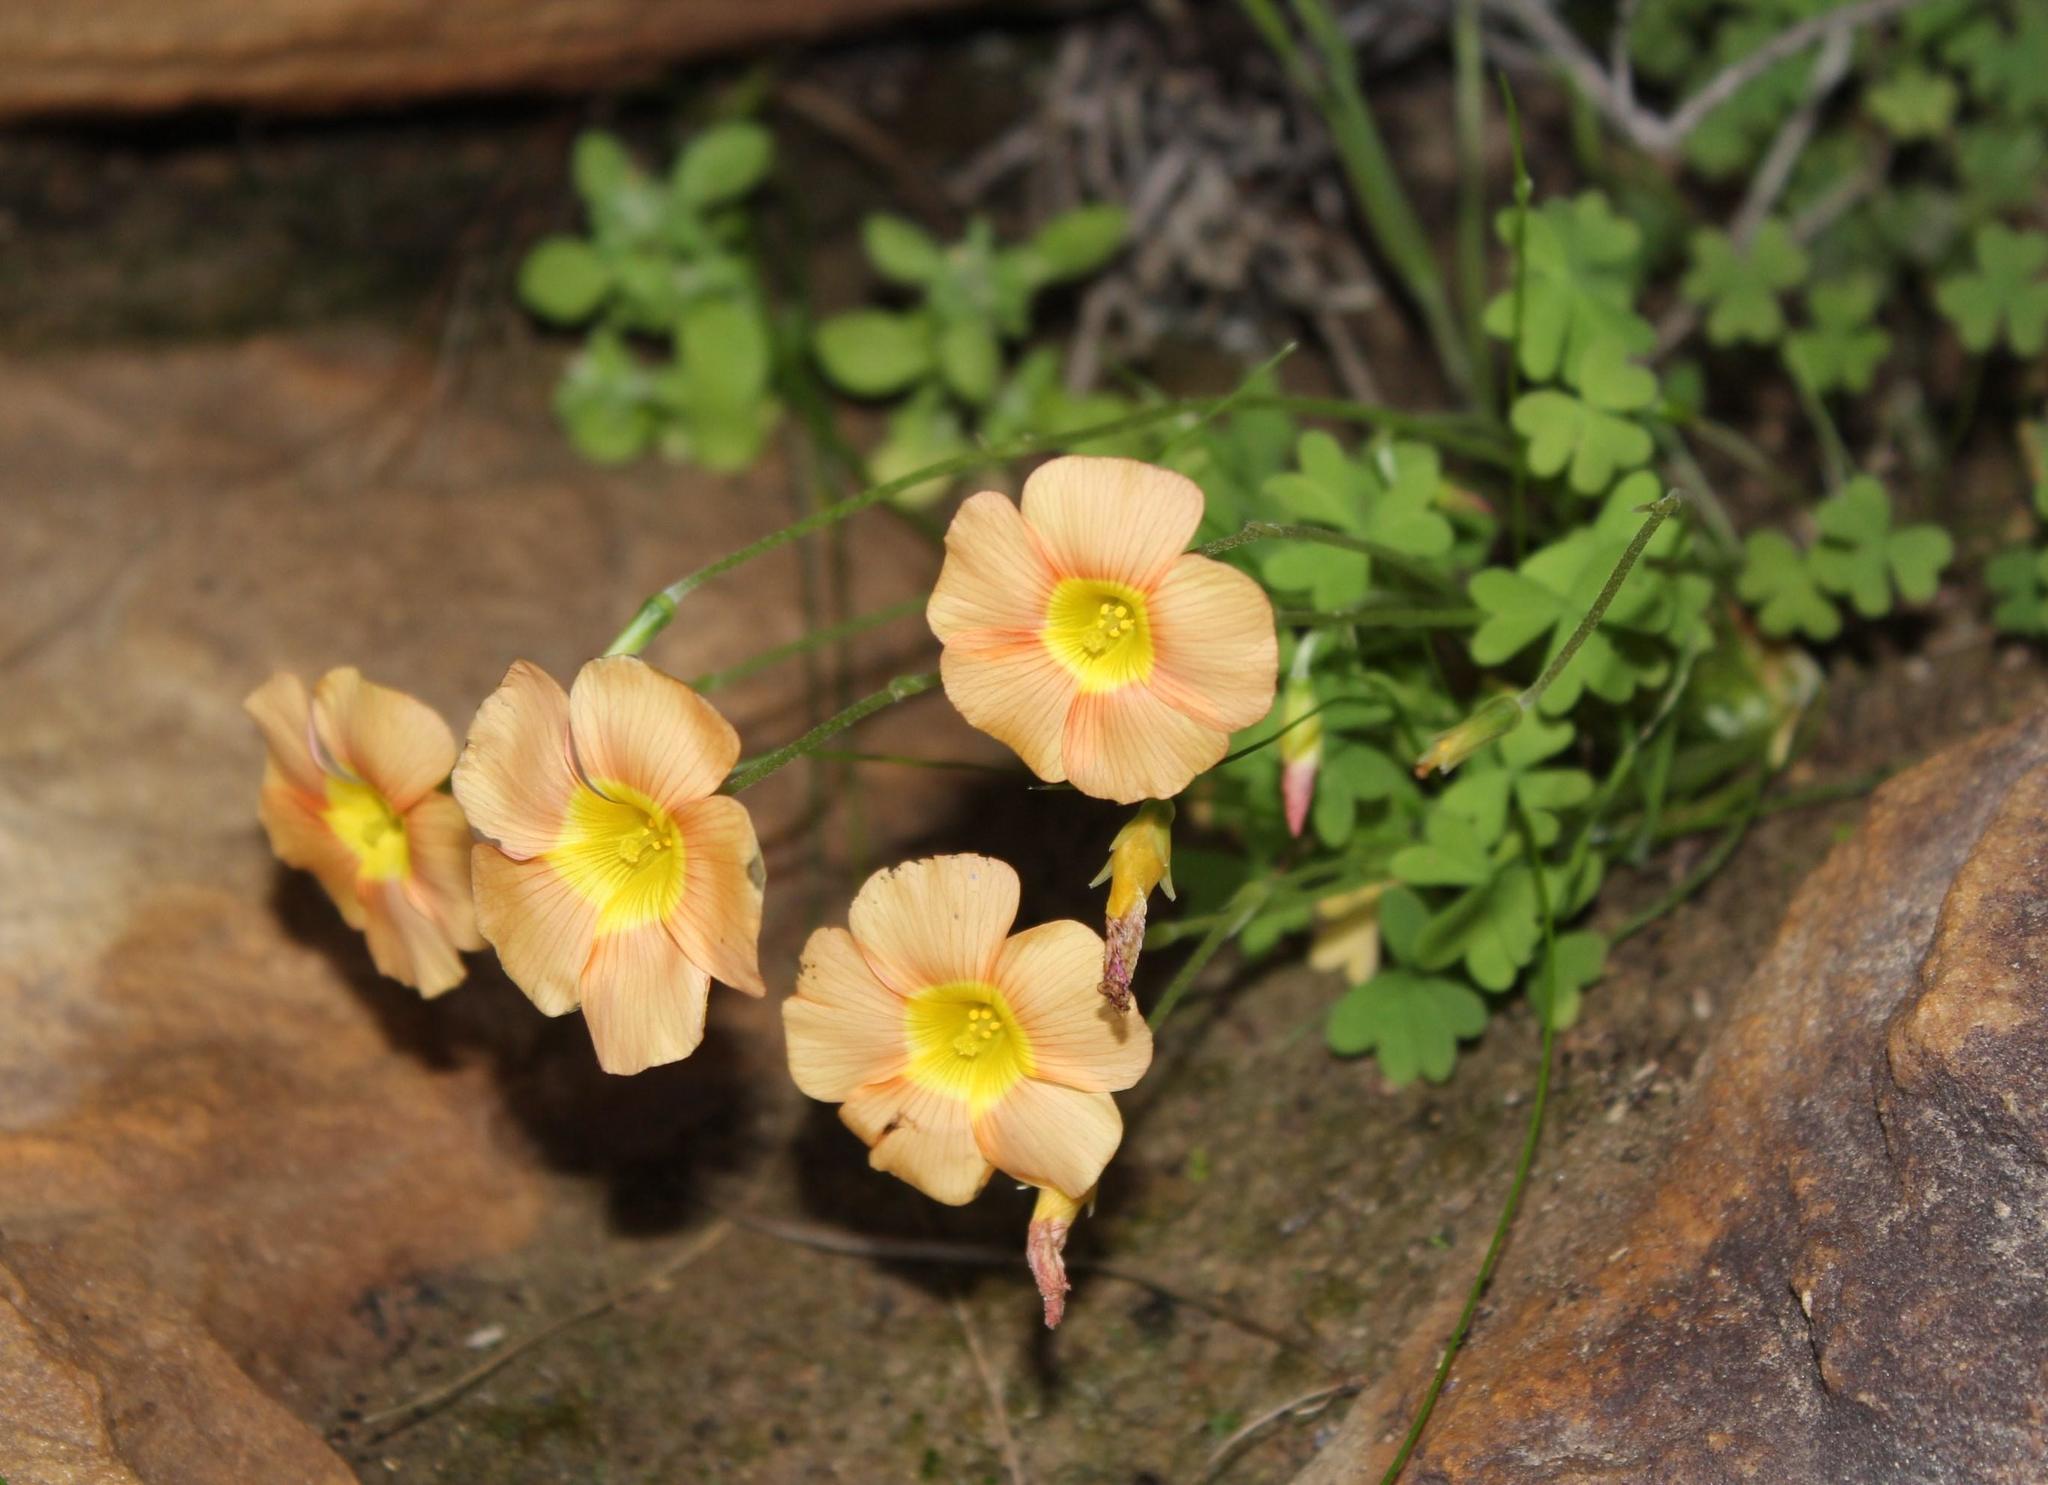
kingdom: Plantae
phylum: Tracheophyta
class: Magnoliopsida
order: Oxalidales
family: Oxalidaceae
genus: Oxalis
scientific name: Oxalis obtusa
